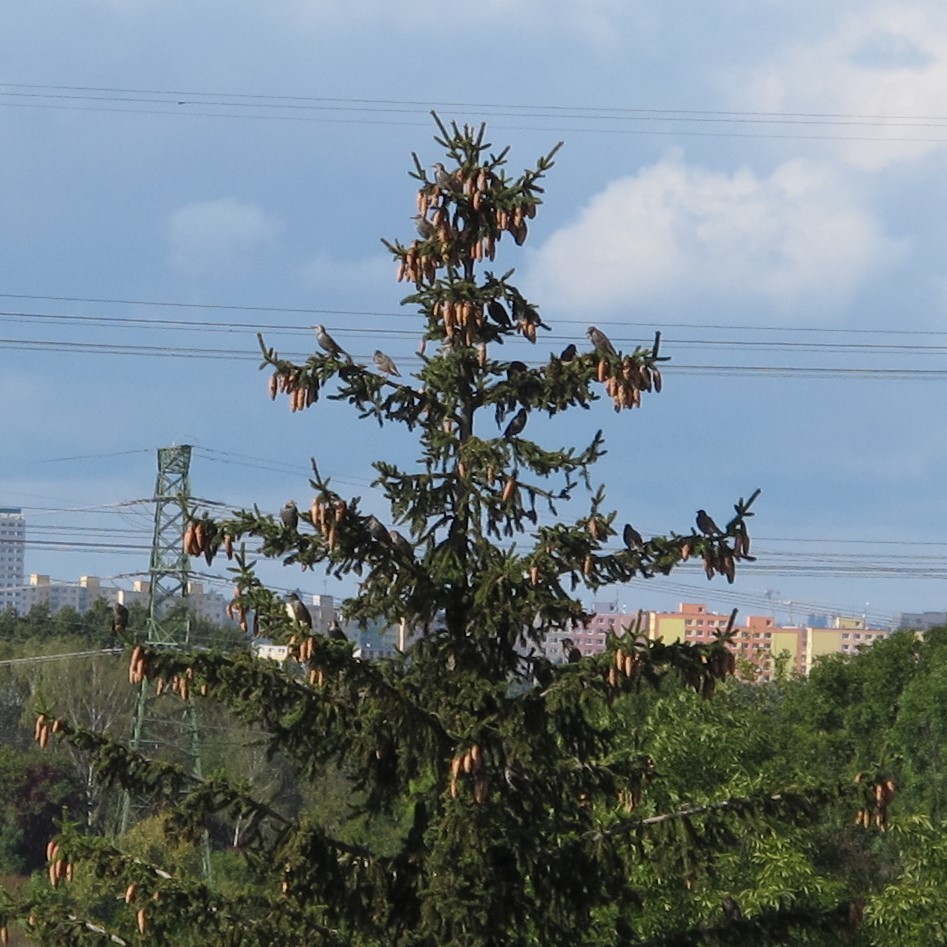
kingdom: Animalia
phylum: Chordata
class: Aves
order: Passeriformes
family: Sturnidae
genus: Sturnus
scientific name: Sturnus vulgaris
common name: Common starling
